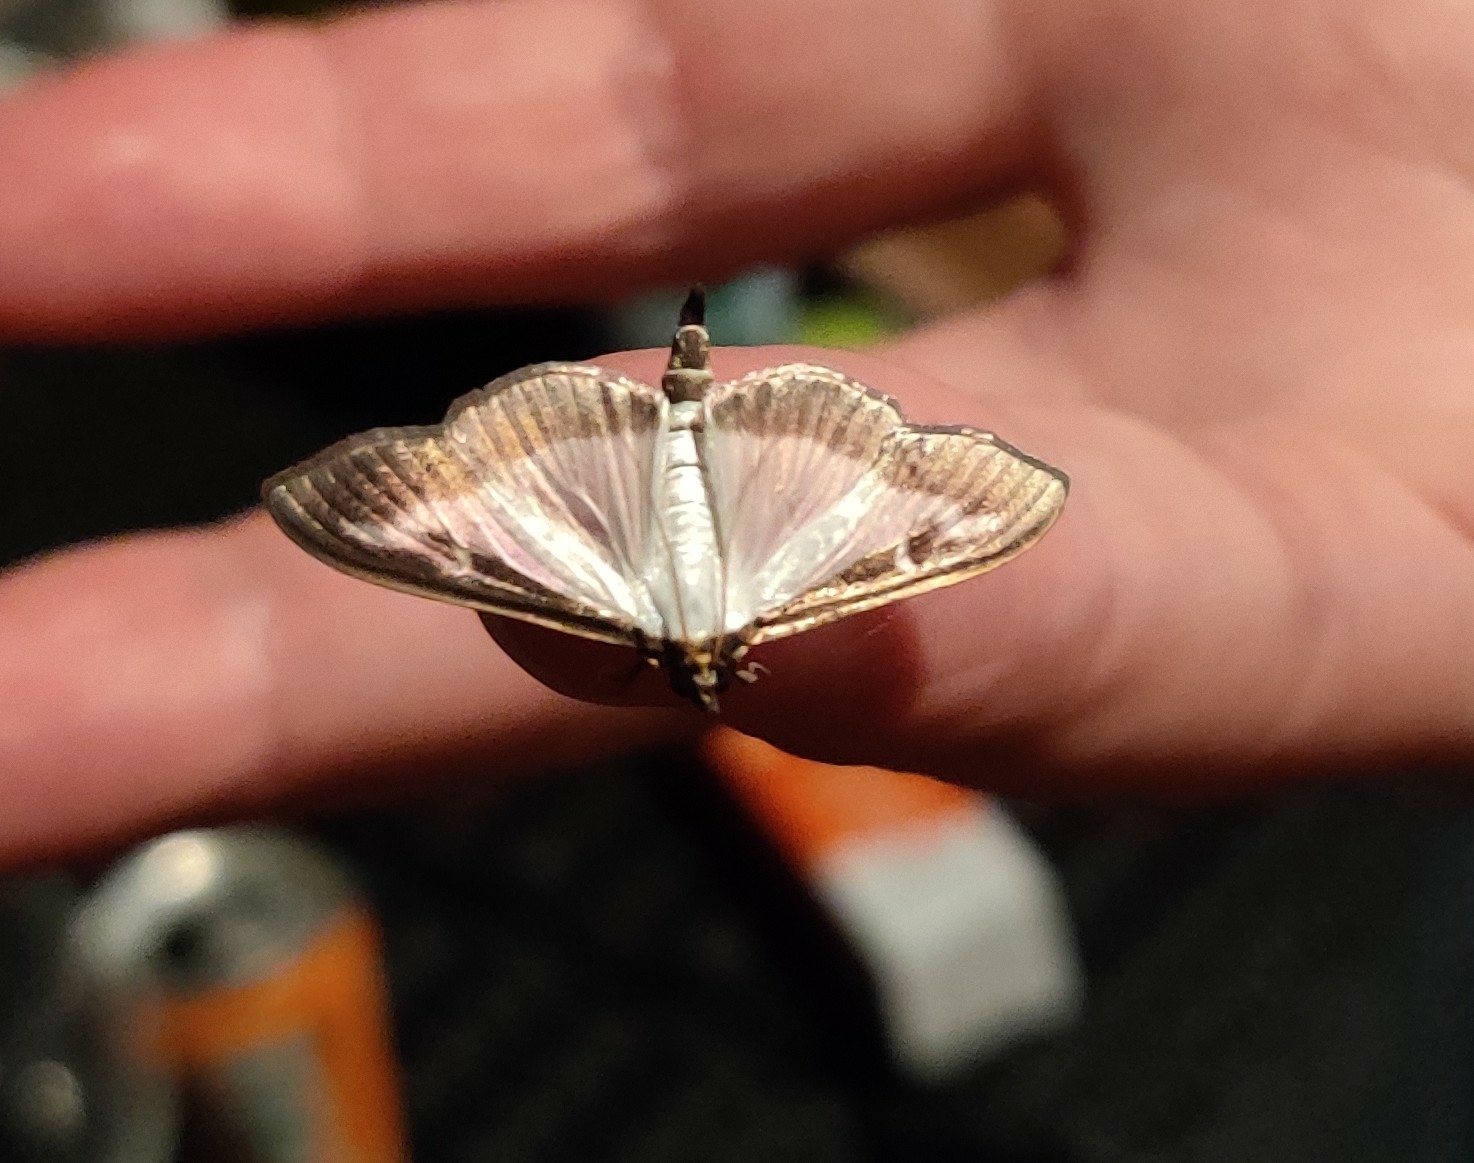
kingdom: Animalia
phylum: Arthropoda
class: Insecta
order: Lepidoptera
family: Crambidae
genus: Cydalima
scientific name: Cydalima perspectalis
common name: Box tree moth
